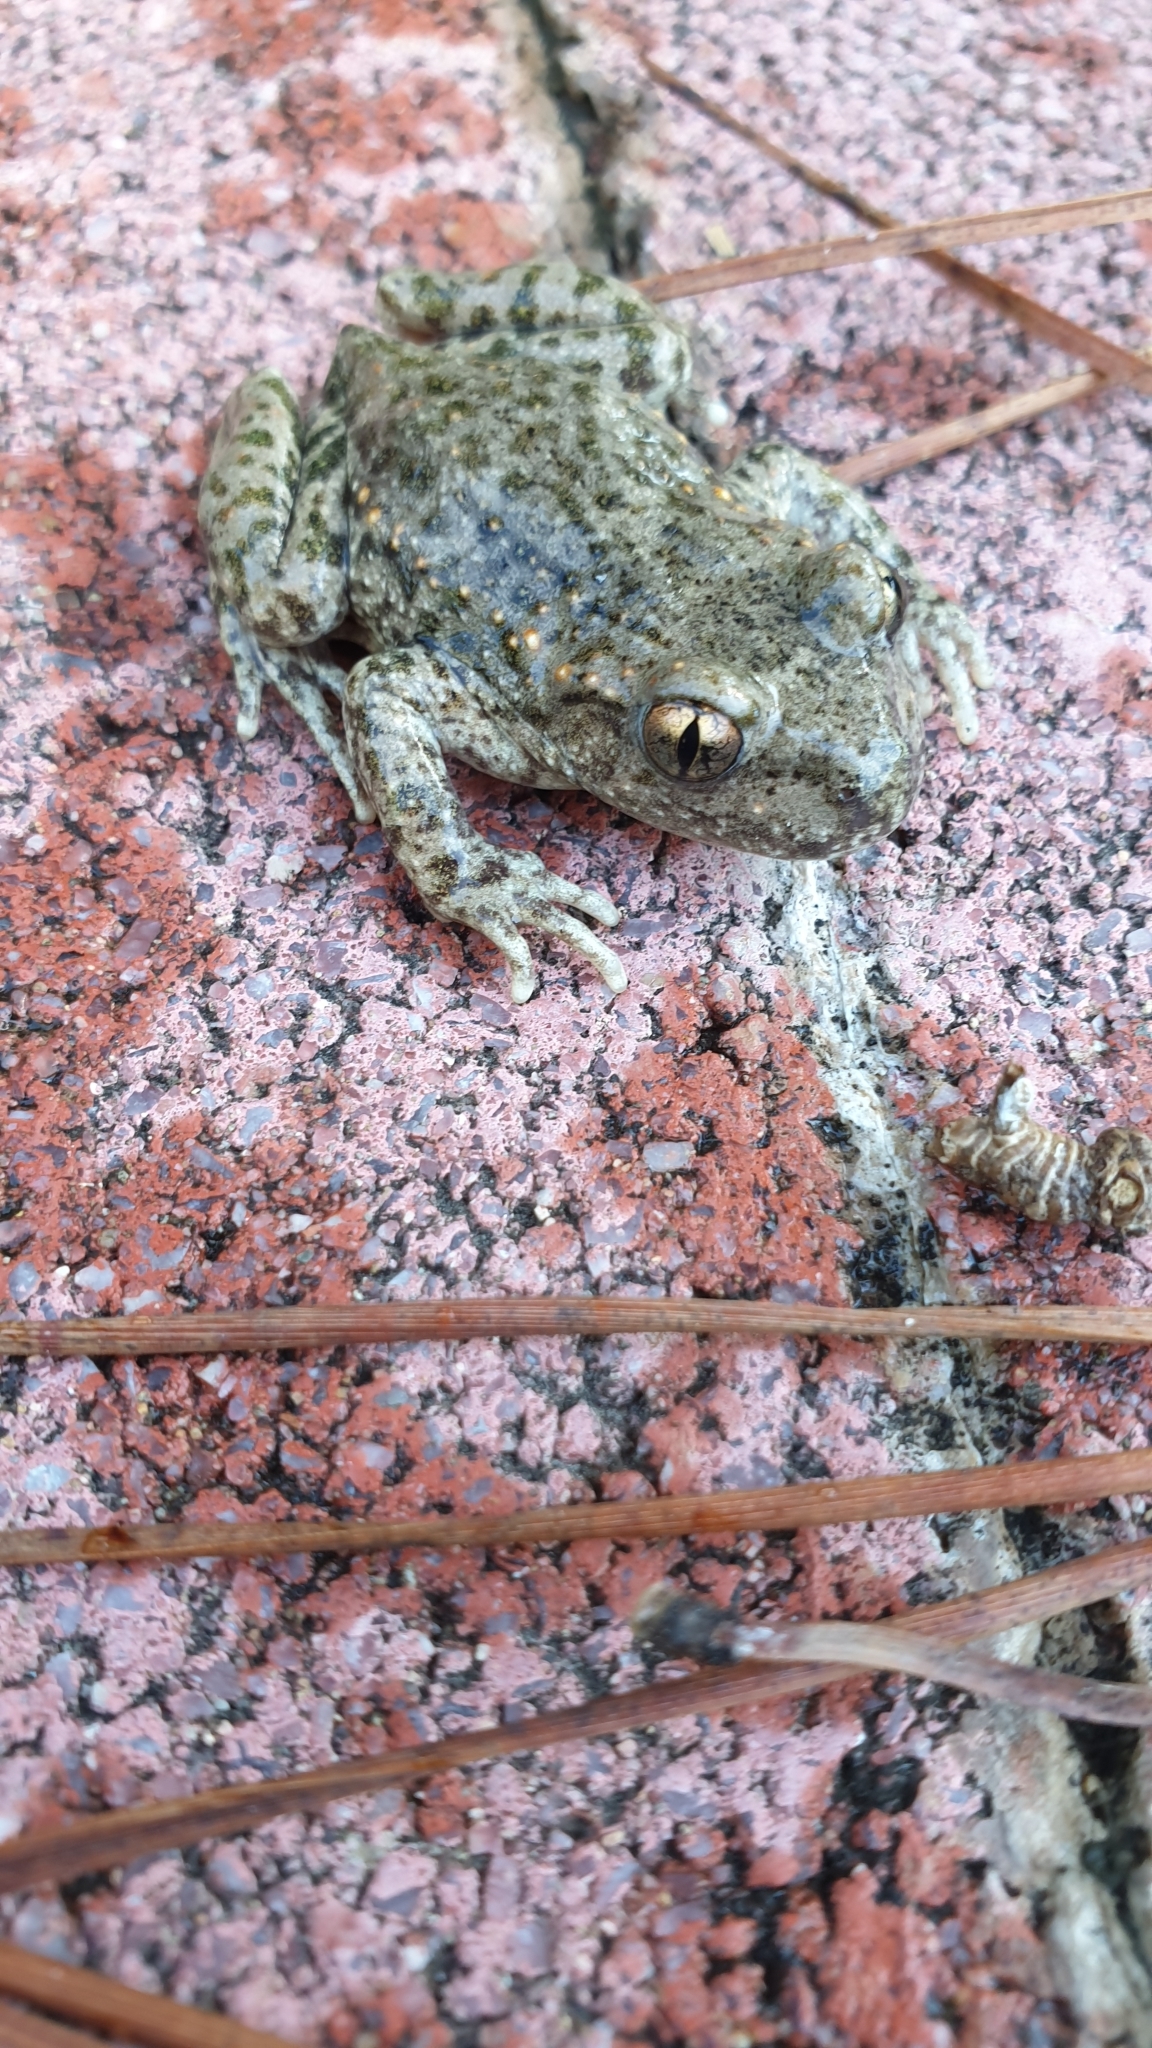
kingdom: Animalia
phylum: Chordata
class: Amphibia
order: Anura
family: Alytidae
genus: Alytes
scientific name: Alytes obstetricans
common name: Midwife toad
